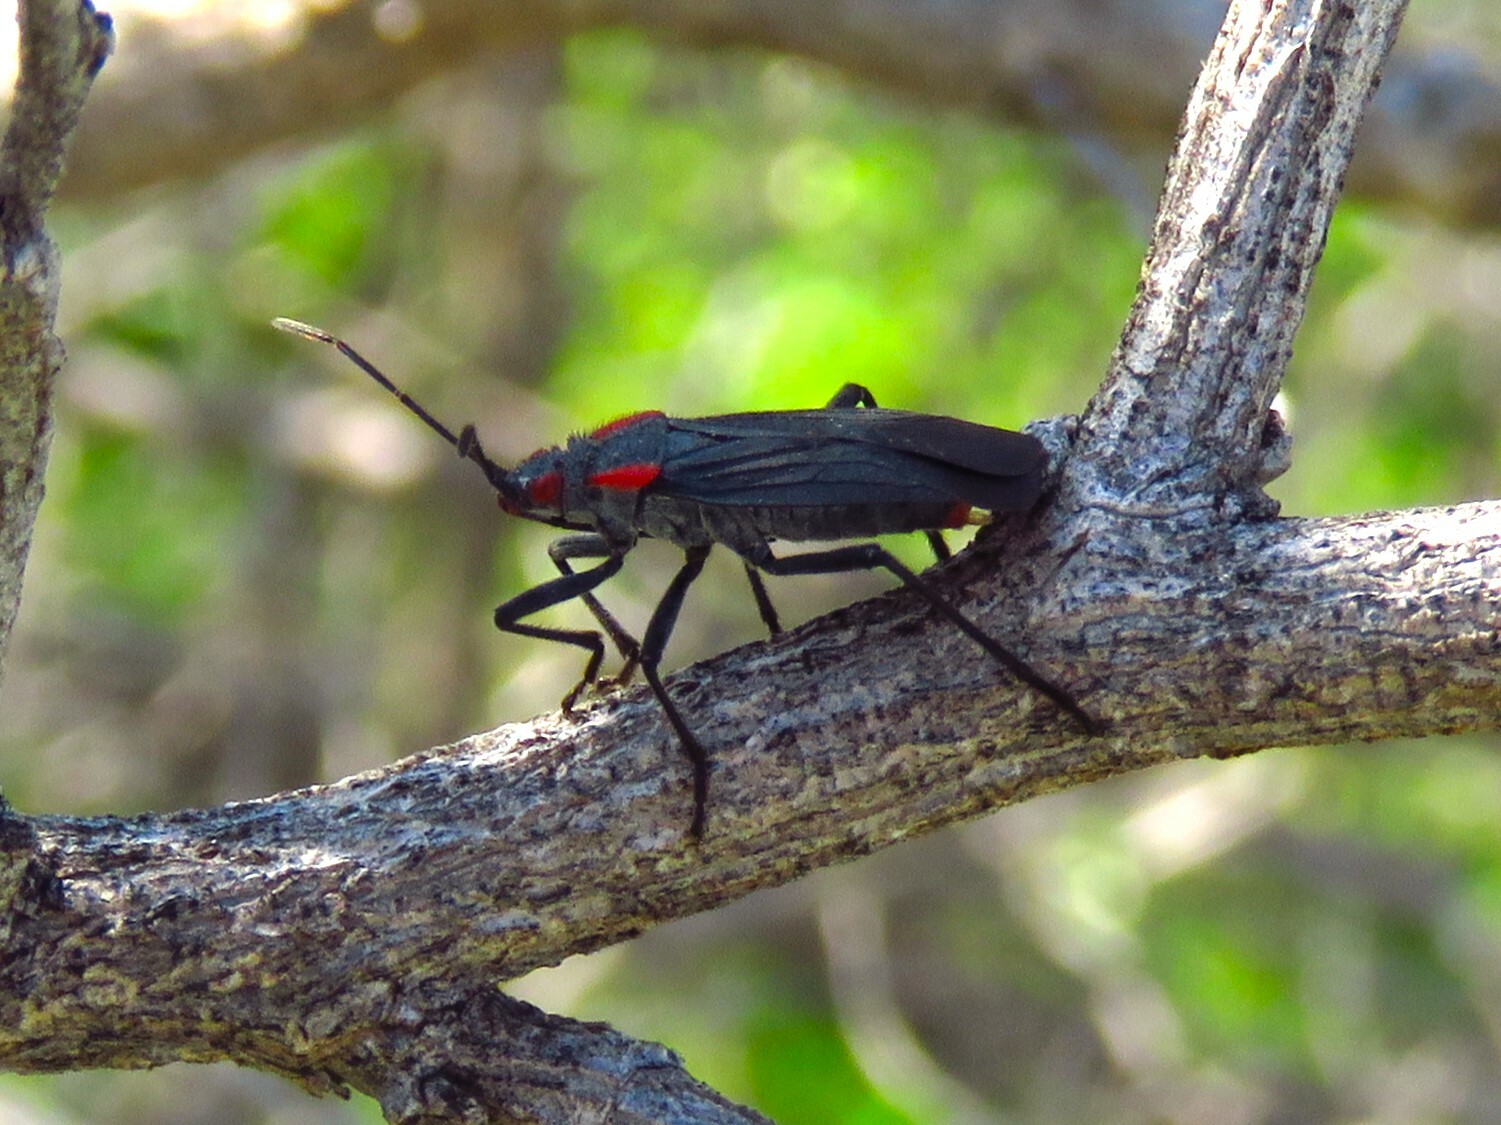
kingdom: Animalia
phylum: Arthropoda
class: Insecta
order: Hemiptera
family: Rhopalidae
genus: Jadera
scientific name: Jadera haematoloma
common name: Red-shouldered bug
